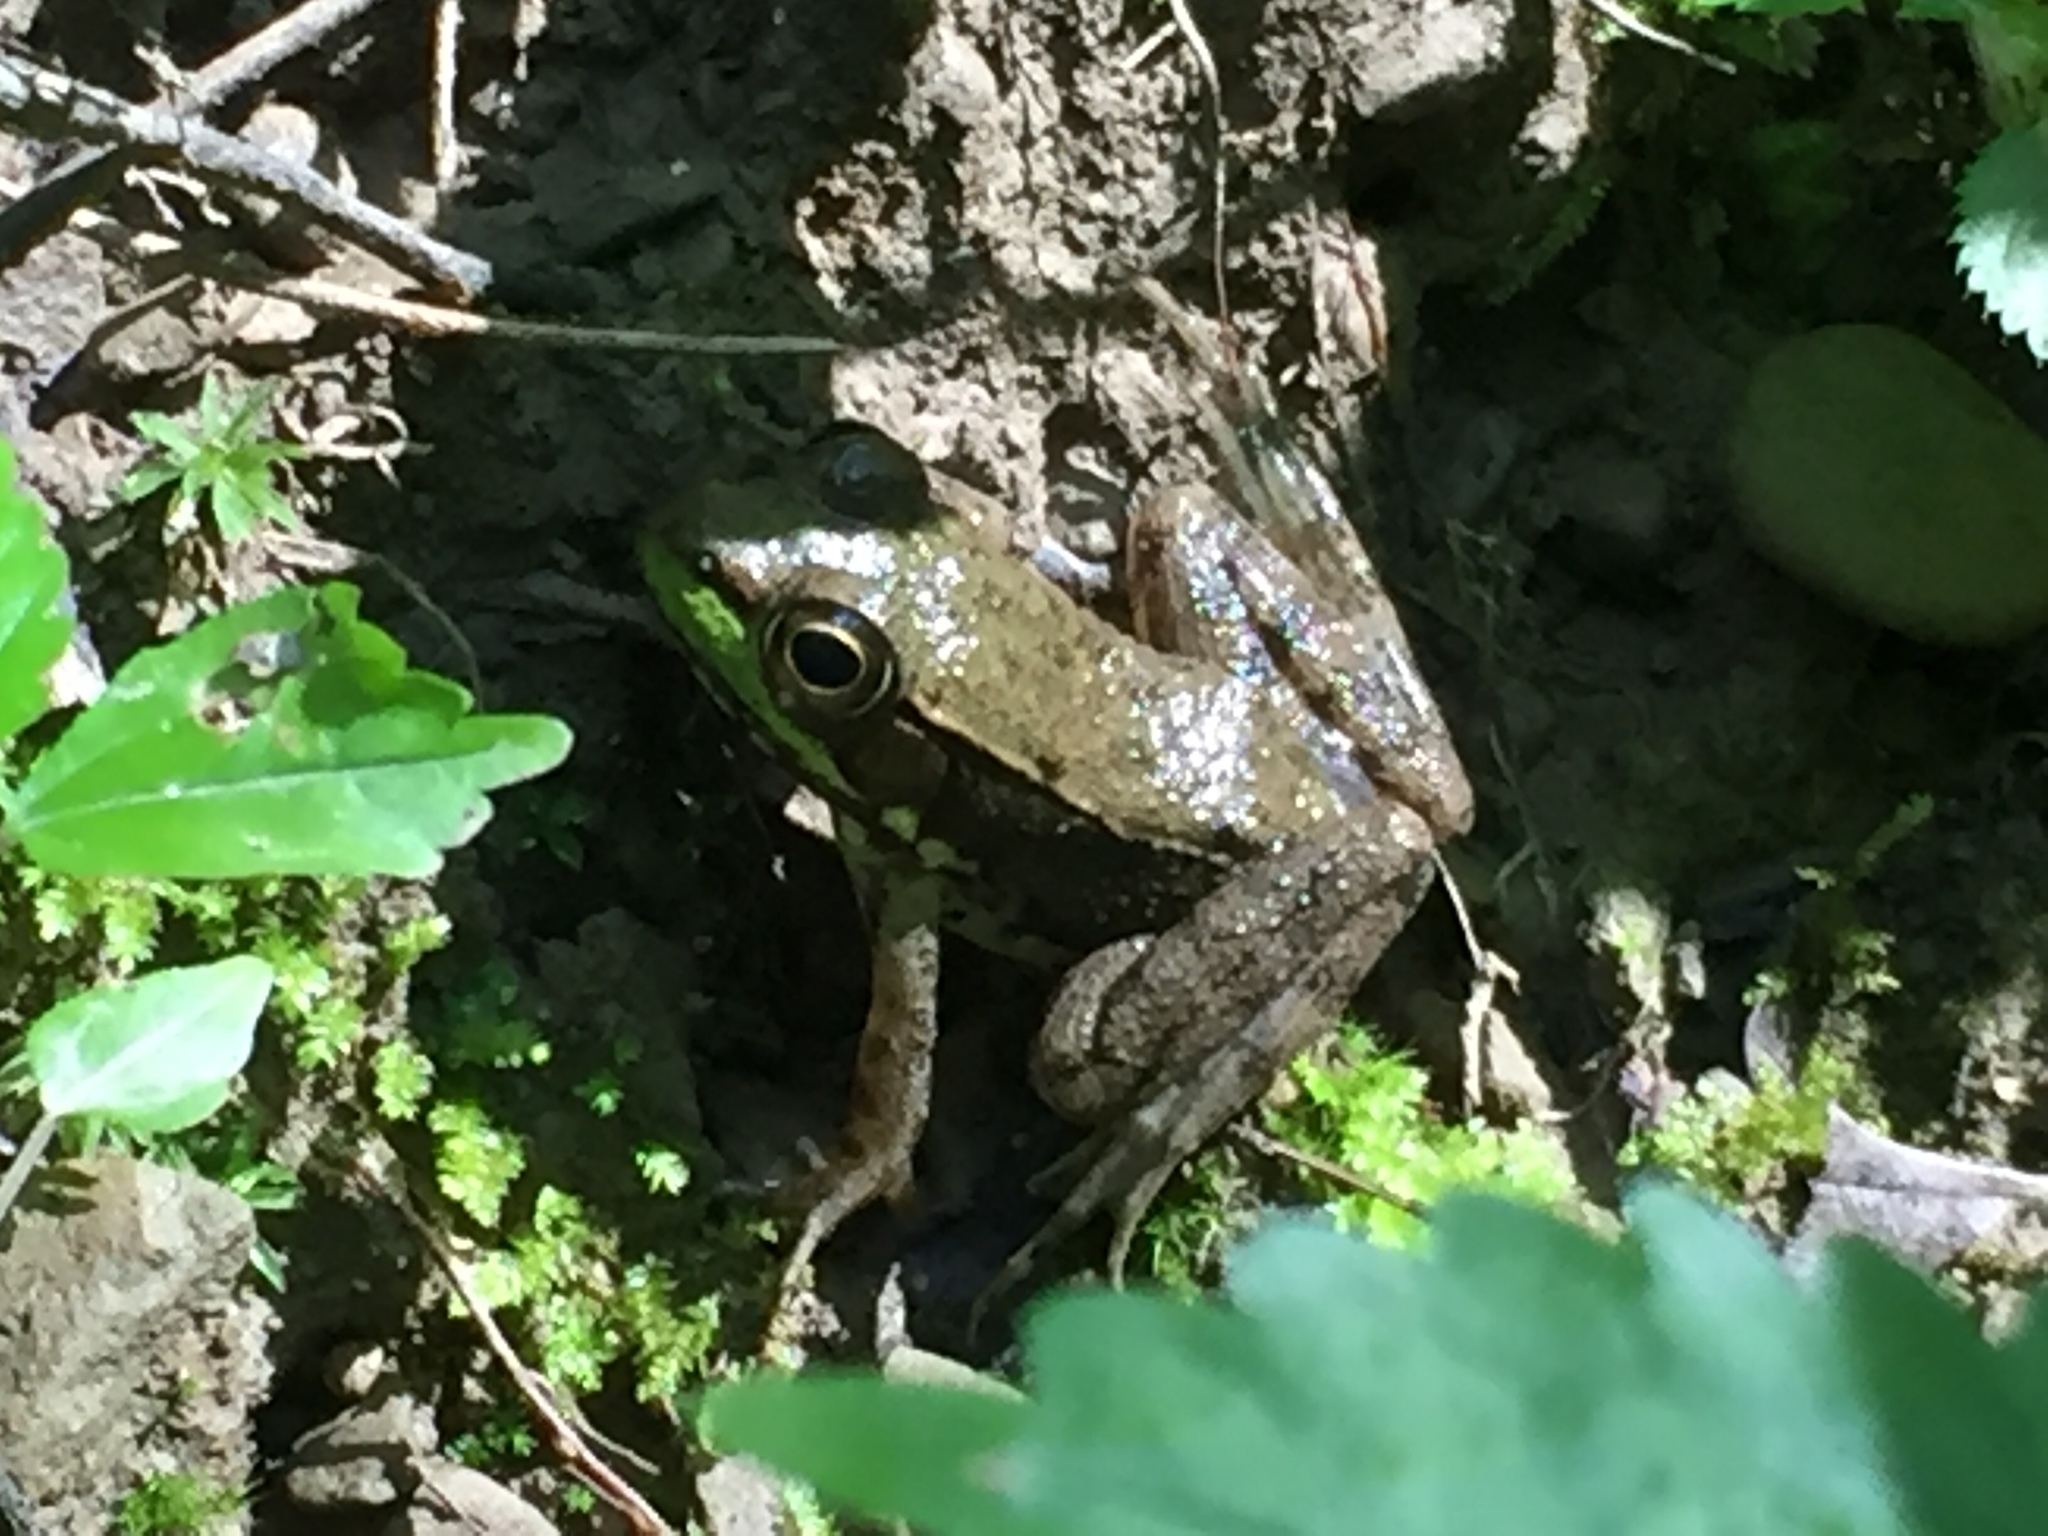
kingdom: Animalia
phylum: Chordata
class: Amphibia
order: Anura
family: Ranidae
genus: Lithobates
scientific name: Lithobates clamitans
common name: Green frog
